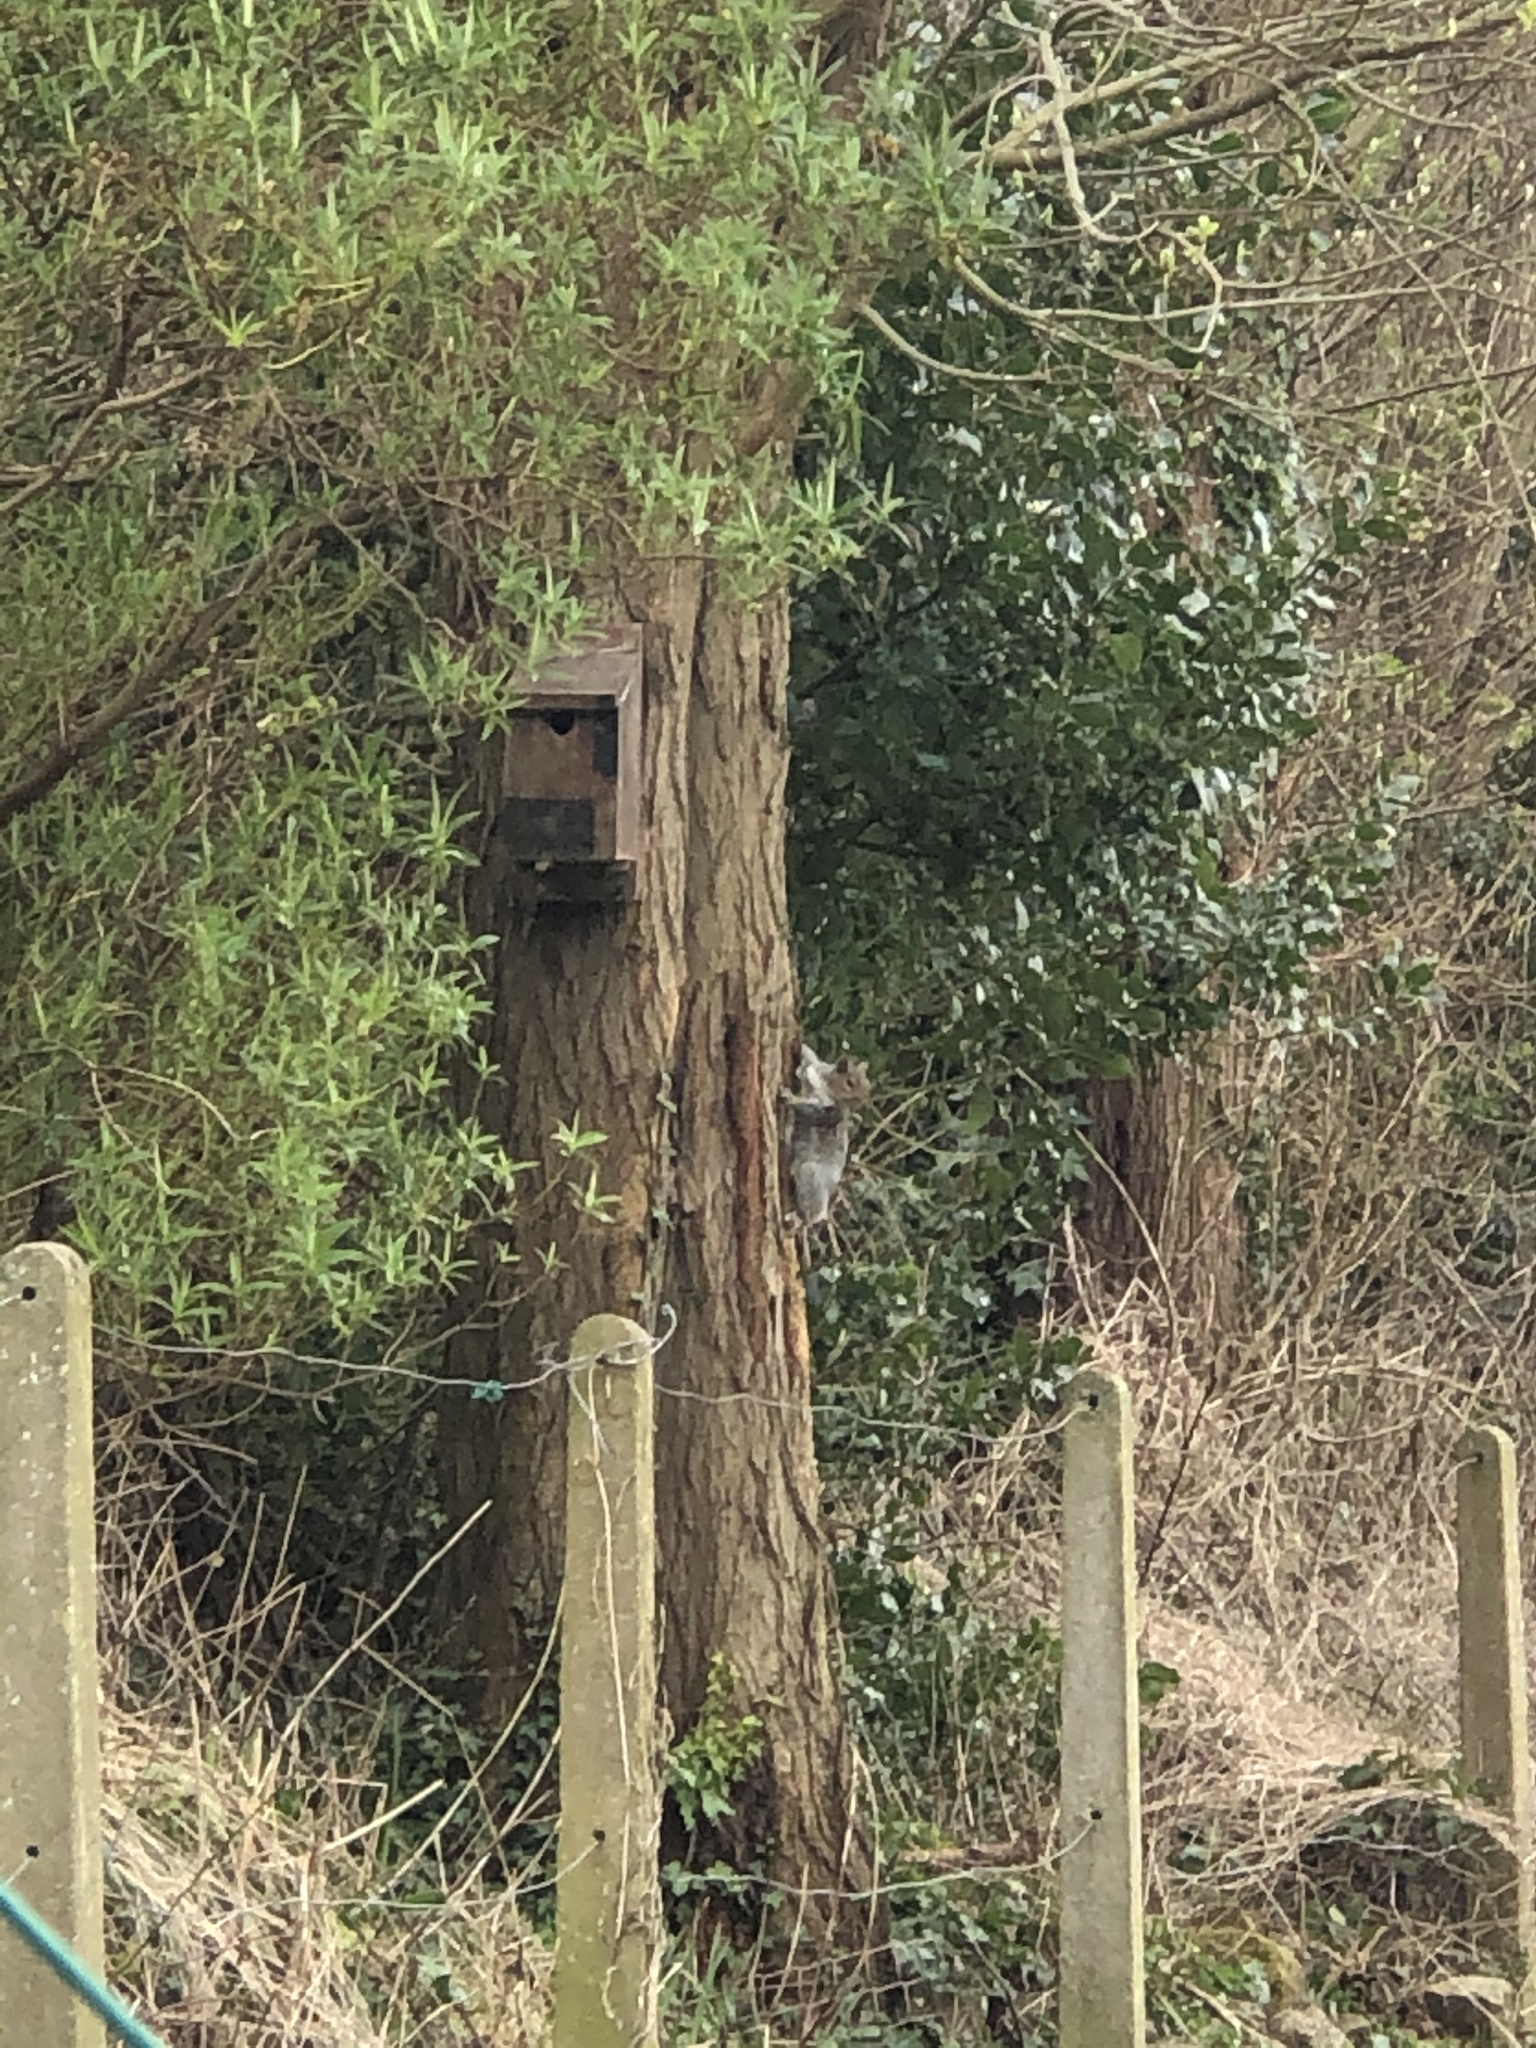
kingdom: Animalia
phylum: Chordata
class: Mammalia
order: Rodentia
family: Sciuridae
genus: Sciurus
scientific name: Sciurus carolinensis
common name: Eastern gray squirrel
